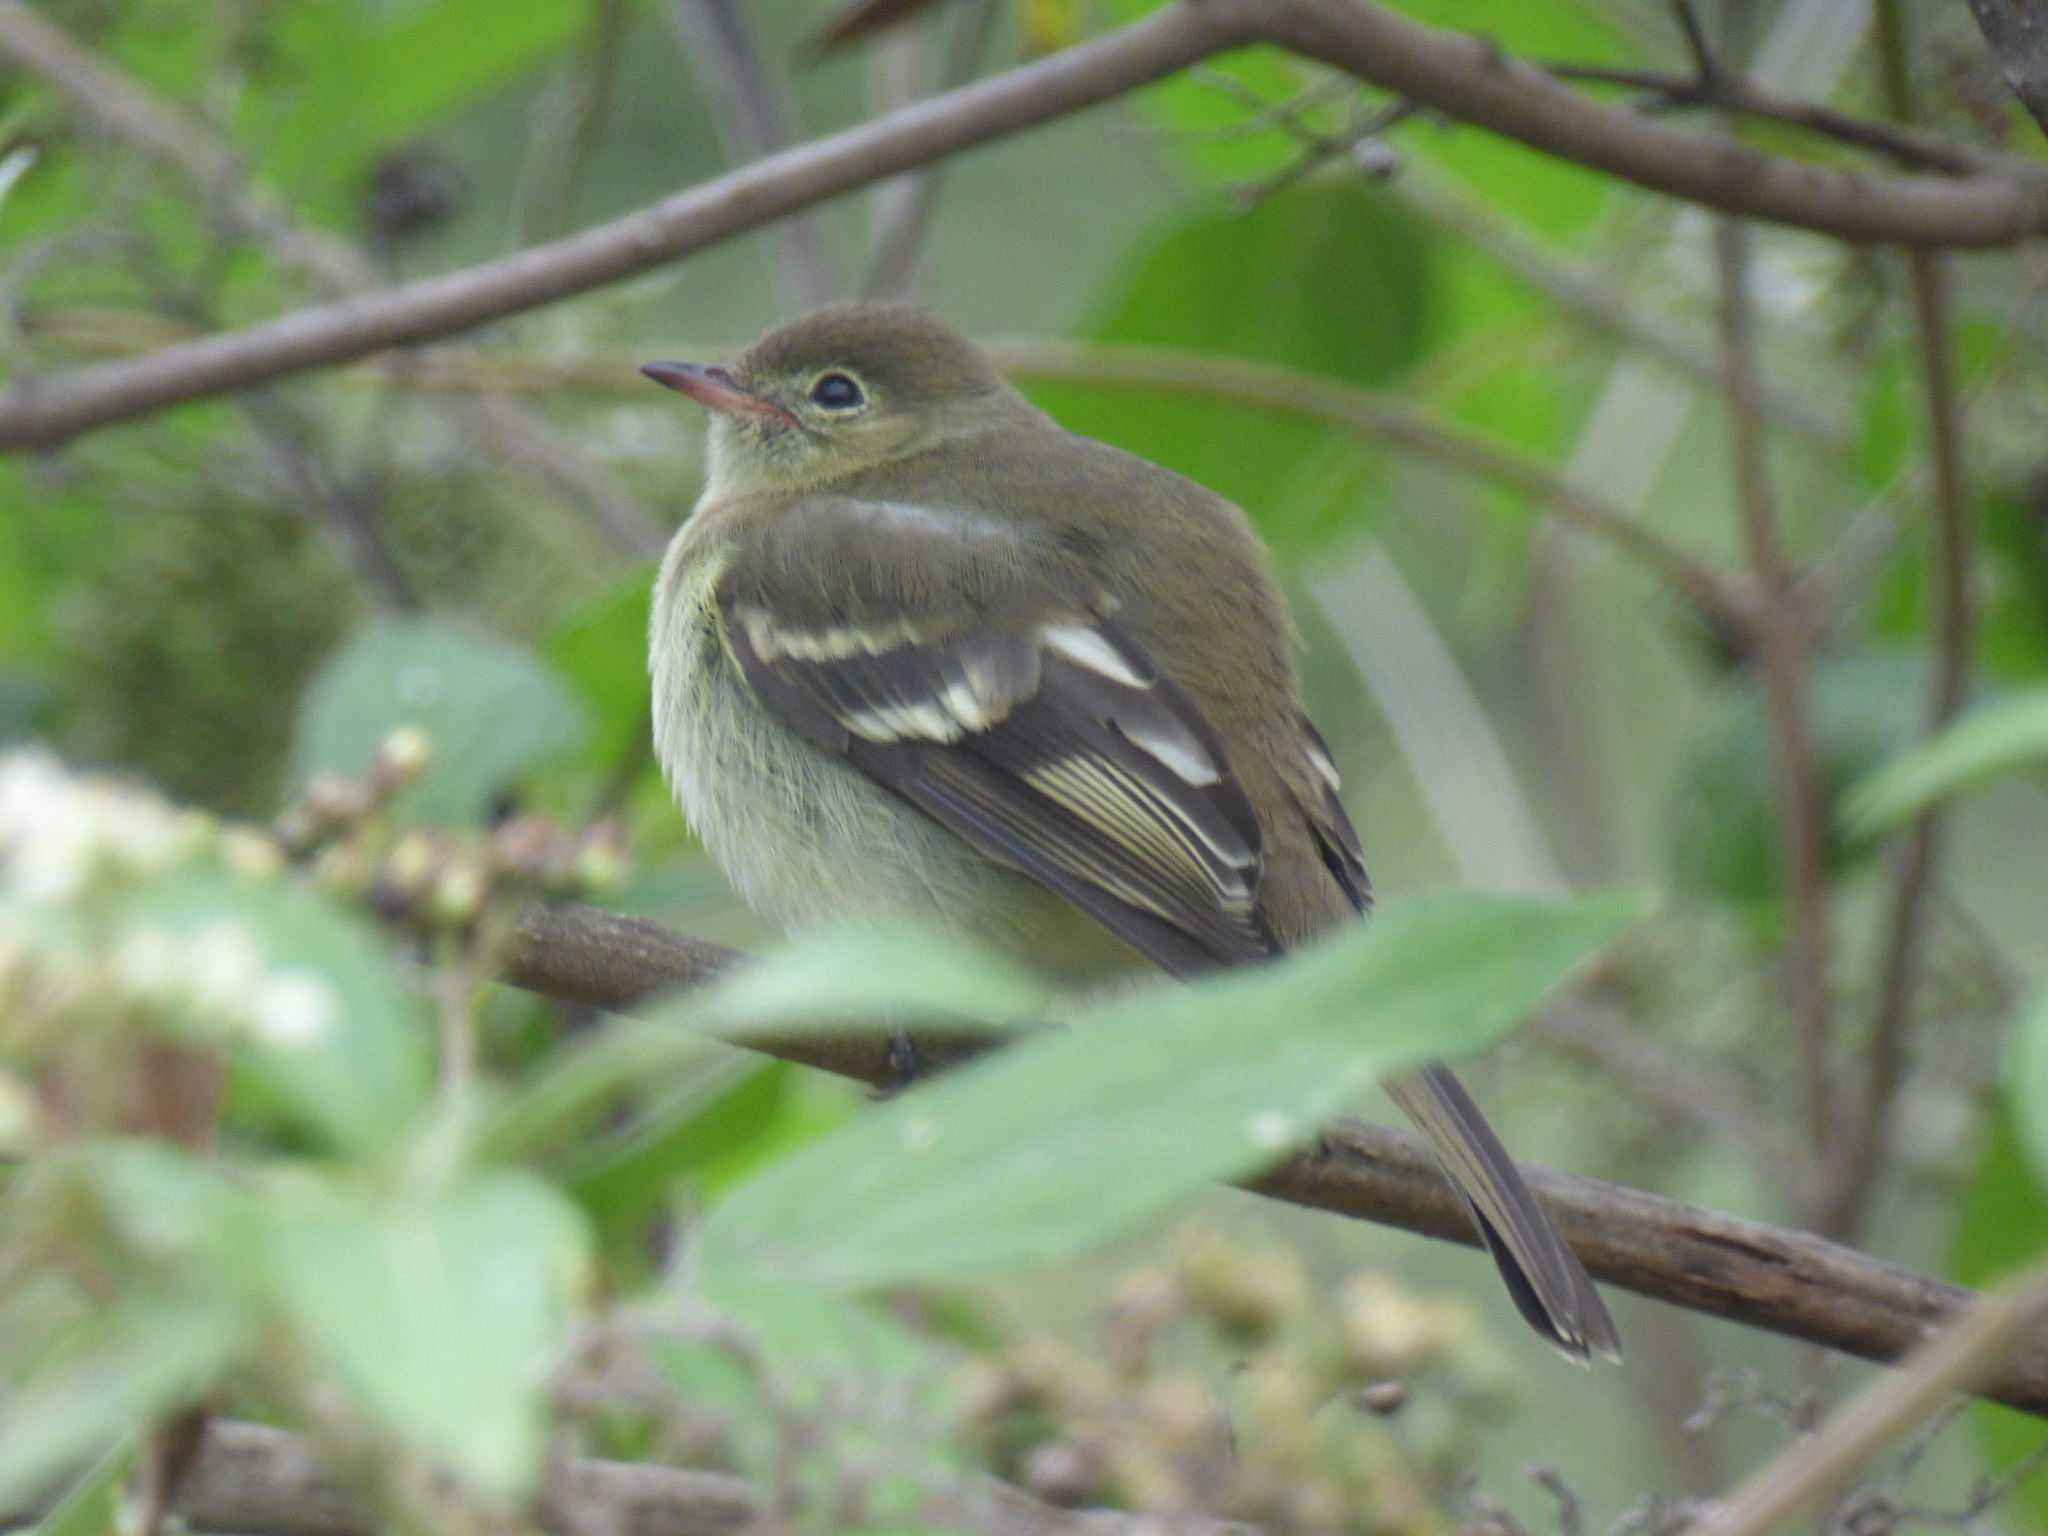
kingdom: Animalia
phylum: Chordata
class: Aves
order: Passeriformes
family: Tyrannidae
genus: Elaenia
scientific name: Elaenia frantzii
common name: Mountain elaenia
